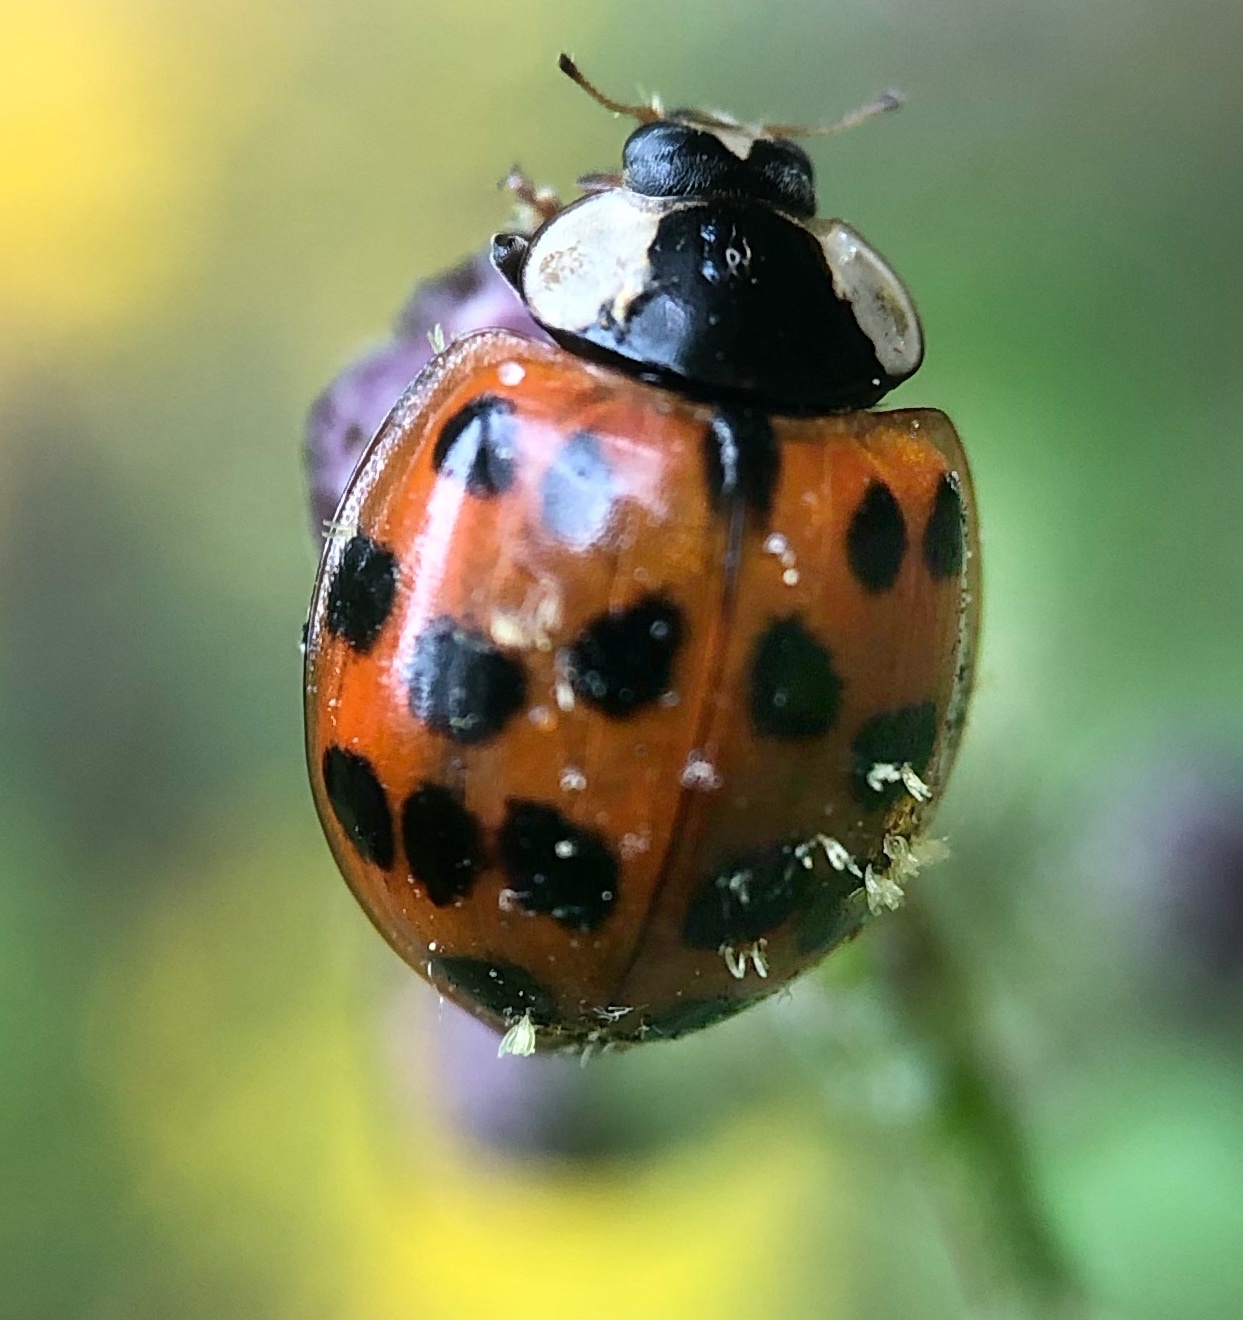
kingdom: Fungi
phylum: Ascomycota
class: Laboulbeniomycetes
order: Laboulbeniales
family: Laboulbeniaceae
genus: Hesperomyces
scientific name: Hesperomyces harmoniae
